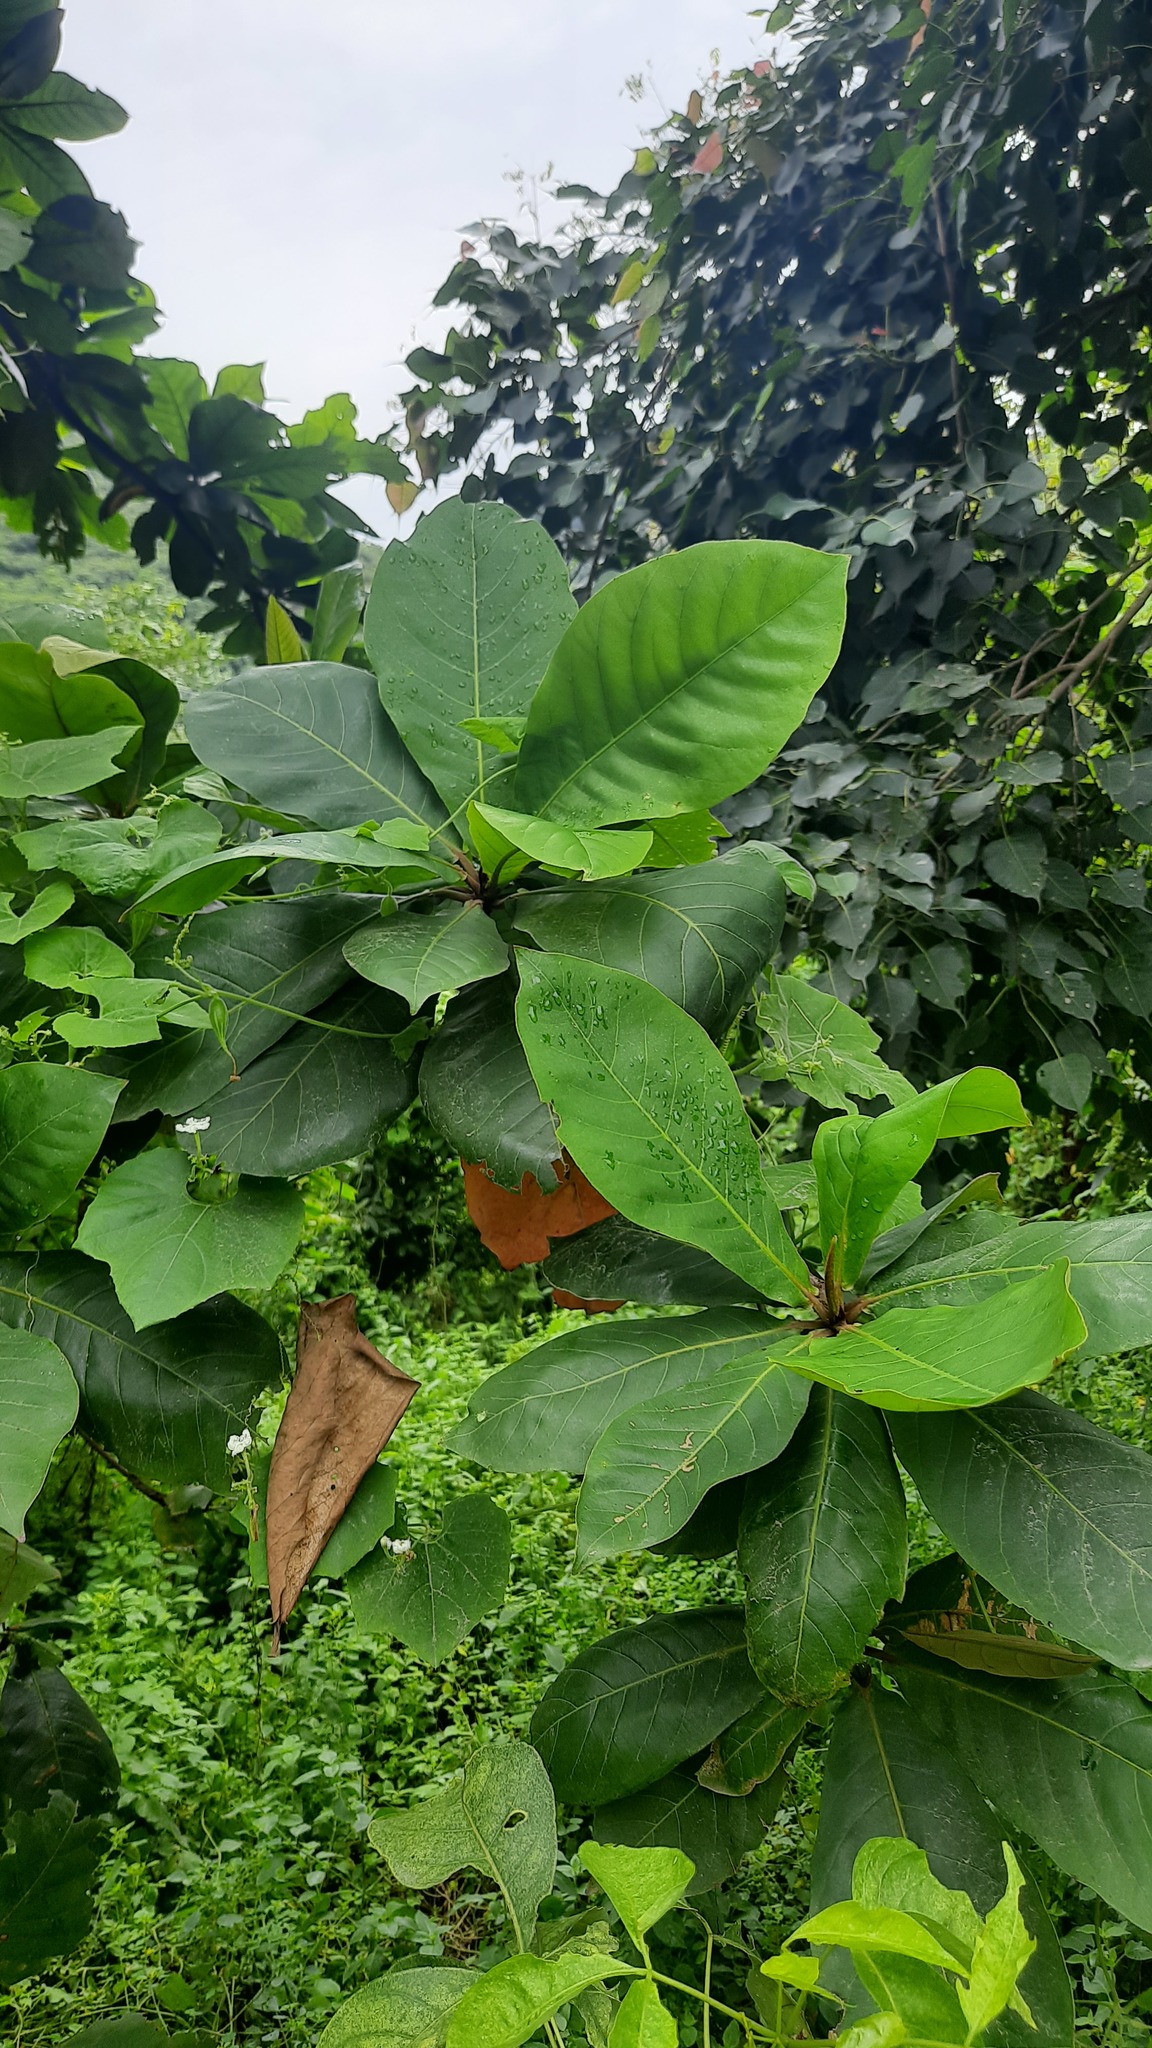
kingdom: Plantae
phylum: Tracheophyta
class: Magnoliopsida
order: Myrtales
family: Combretaceae
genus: Terminalia
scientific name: Terminalia catappa
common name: Tropical almond
